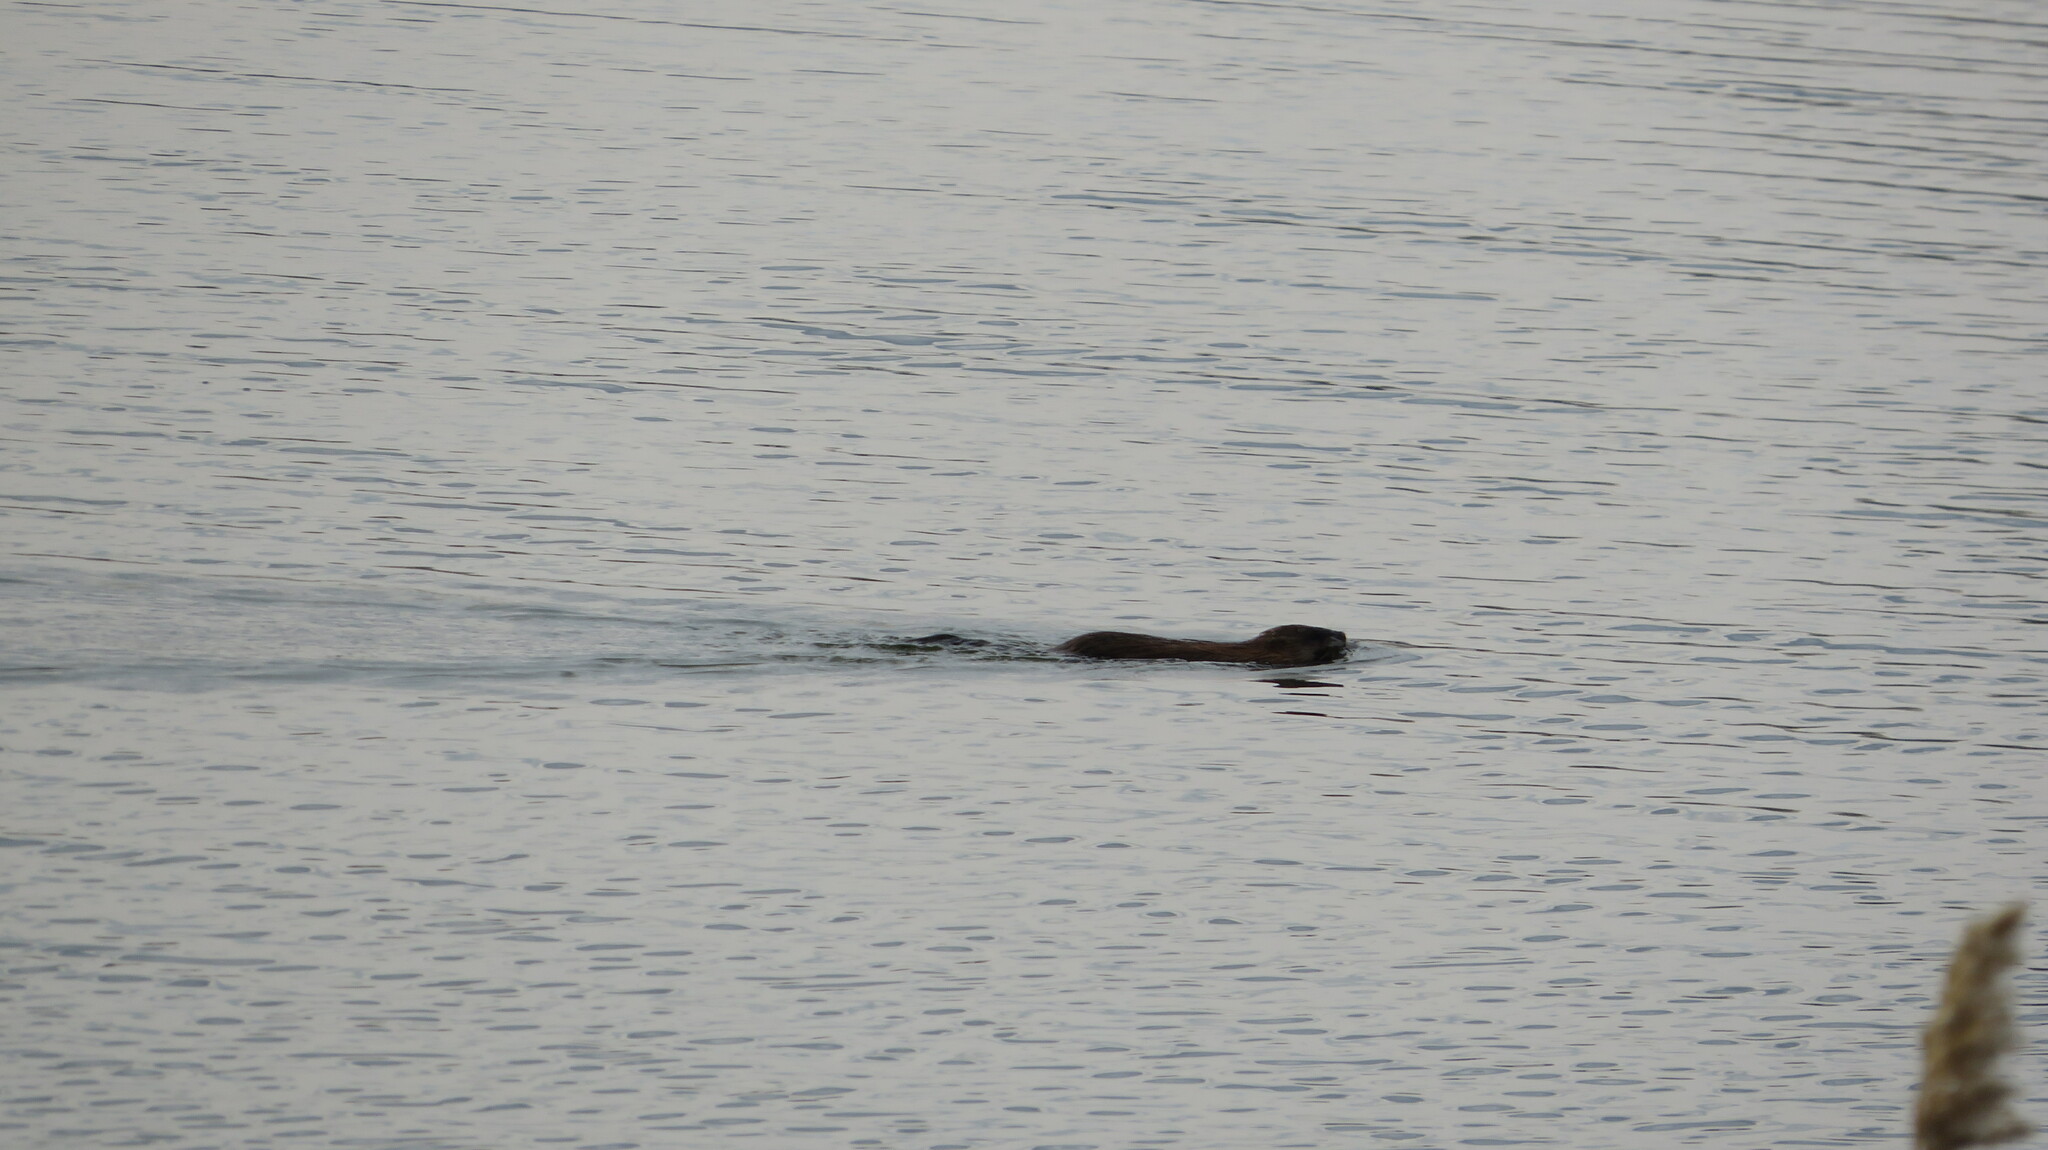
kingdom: Animalia
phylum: Chordata
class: Mammalia
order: Rodentia
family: Cricetidae
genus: Ondatra
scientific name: Ondatra zibethicus
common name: Muskrat
